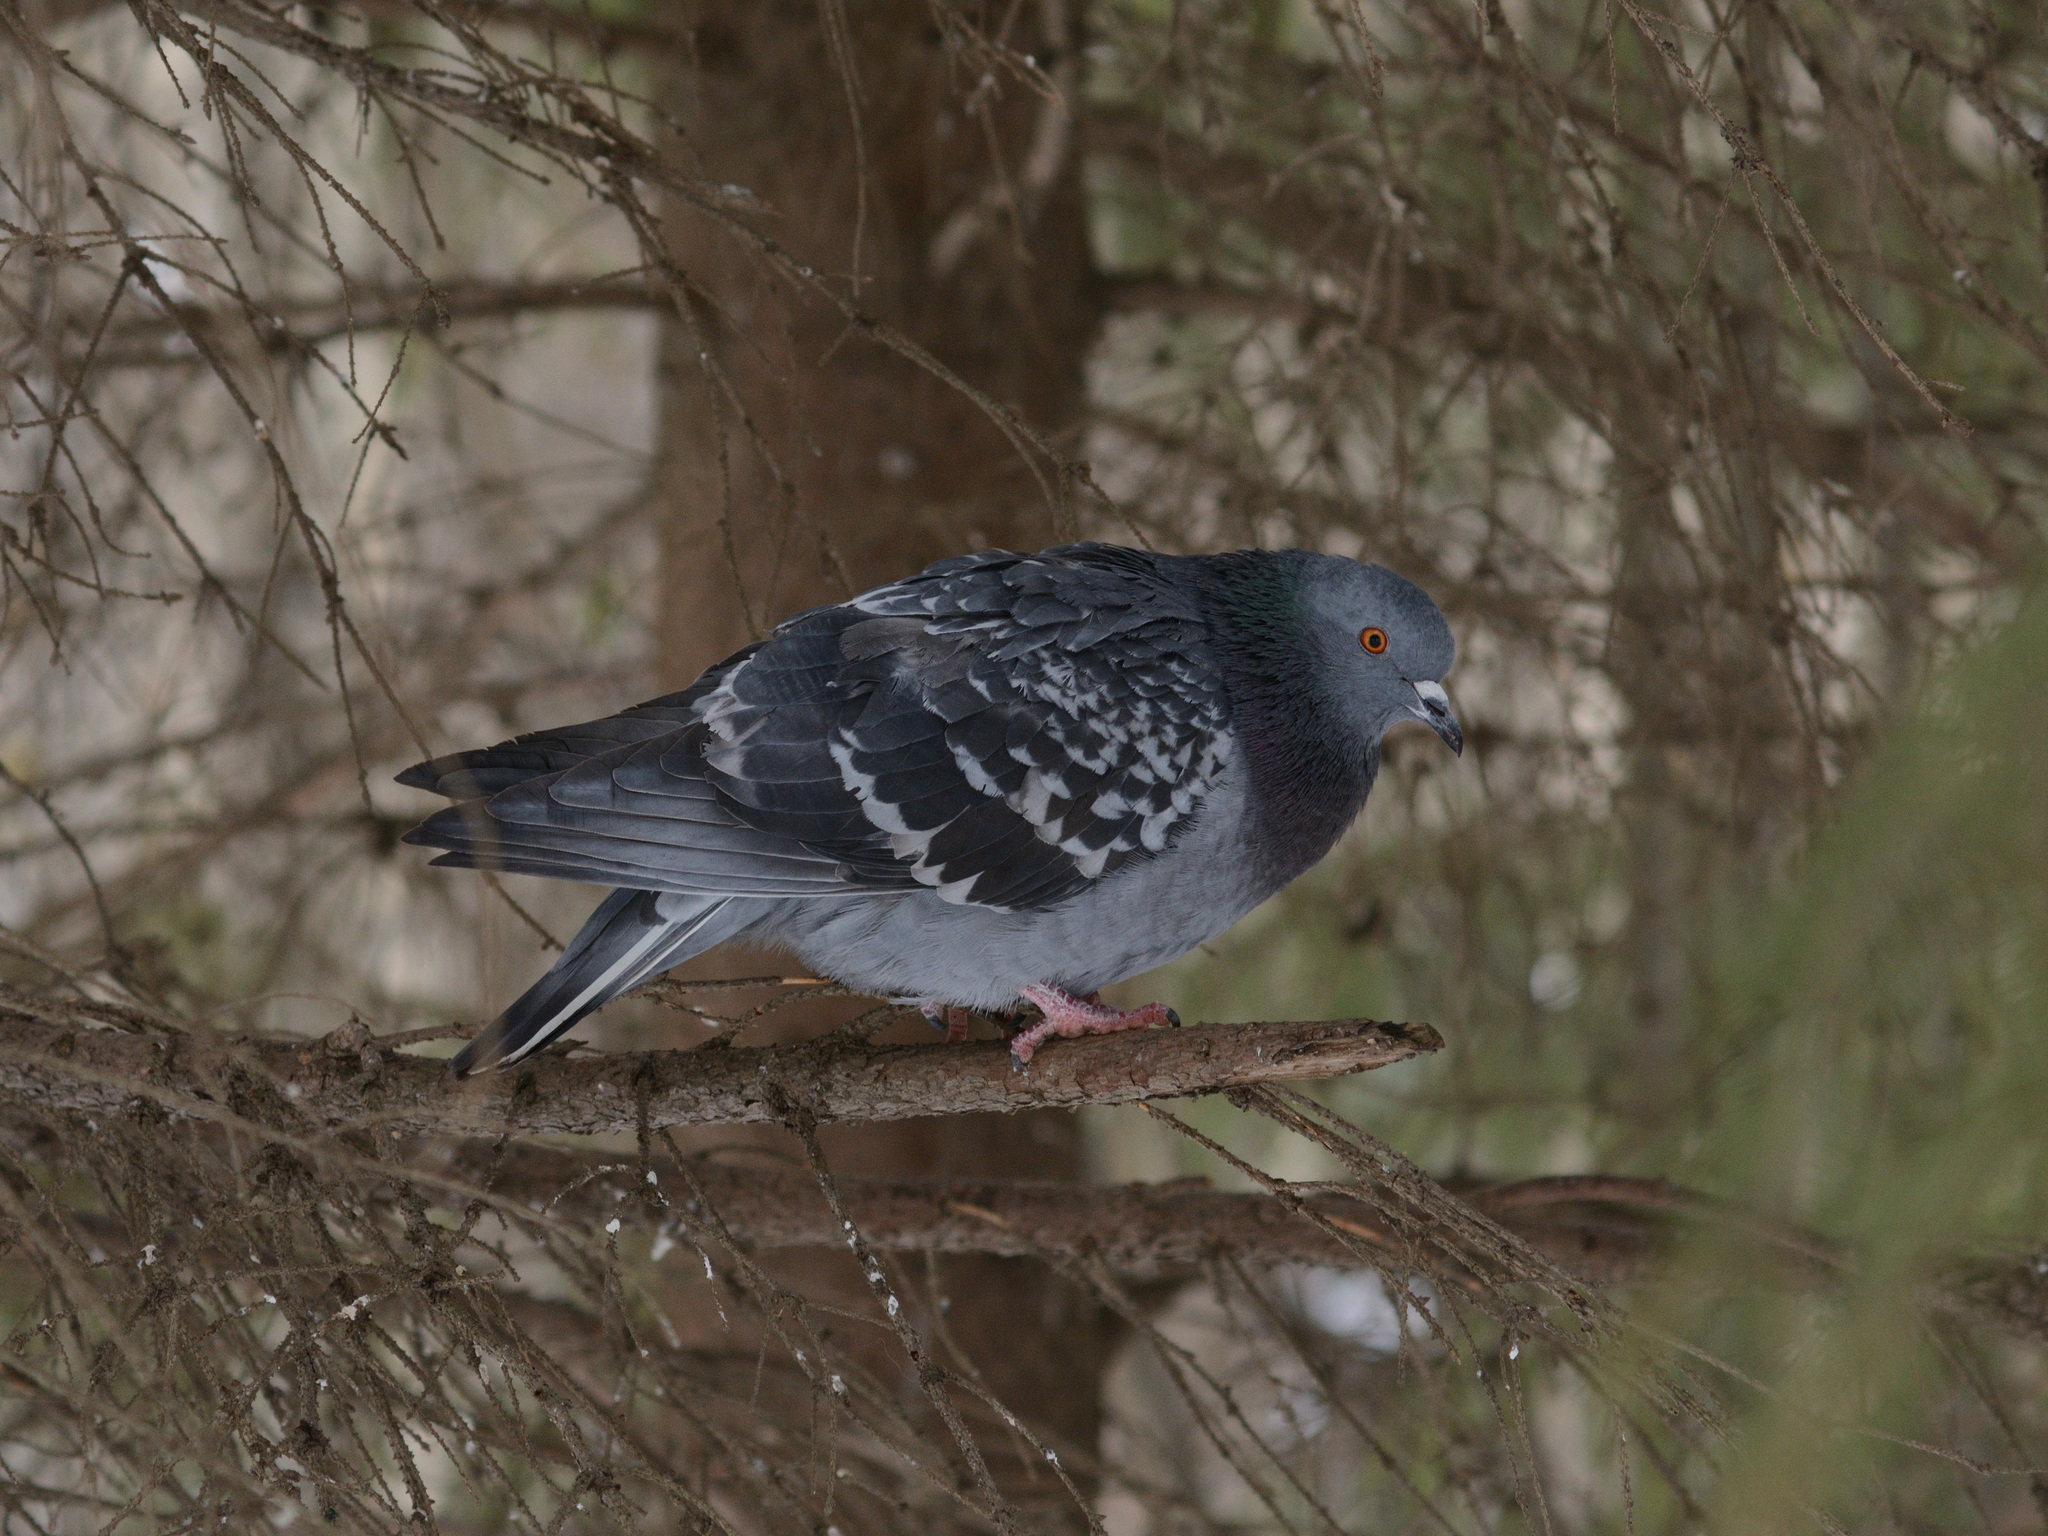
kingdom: Animalia
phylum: Chordata
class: Aves
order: Columbiformes
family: Columbidae
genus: Columba
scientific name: Columba livia
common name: Rock pigeon
